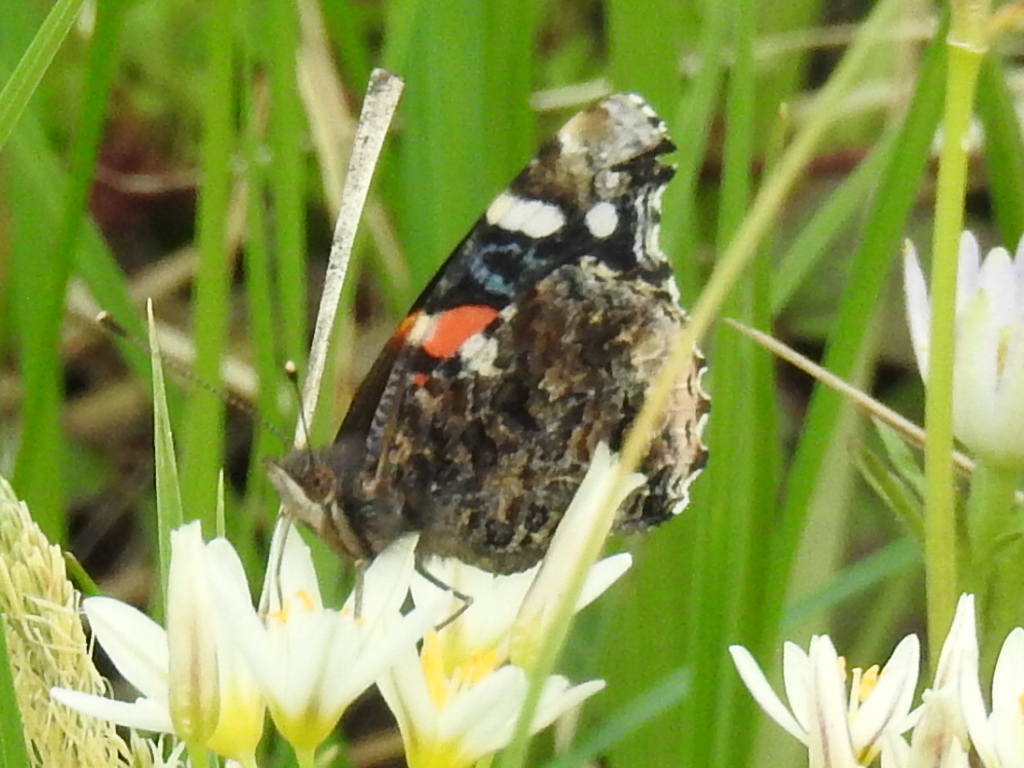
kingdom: Animalia
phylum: Arthropoda
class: Insecta
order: Lepidoptera
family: Nymphalidae
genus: Vanessa
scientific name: Vanessa atalanta
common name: Red admiral
